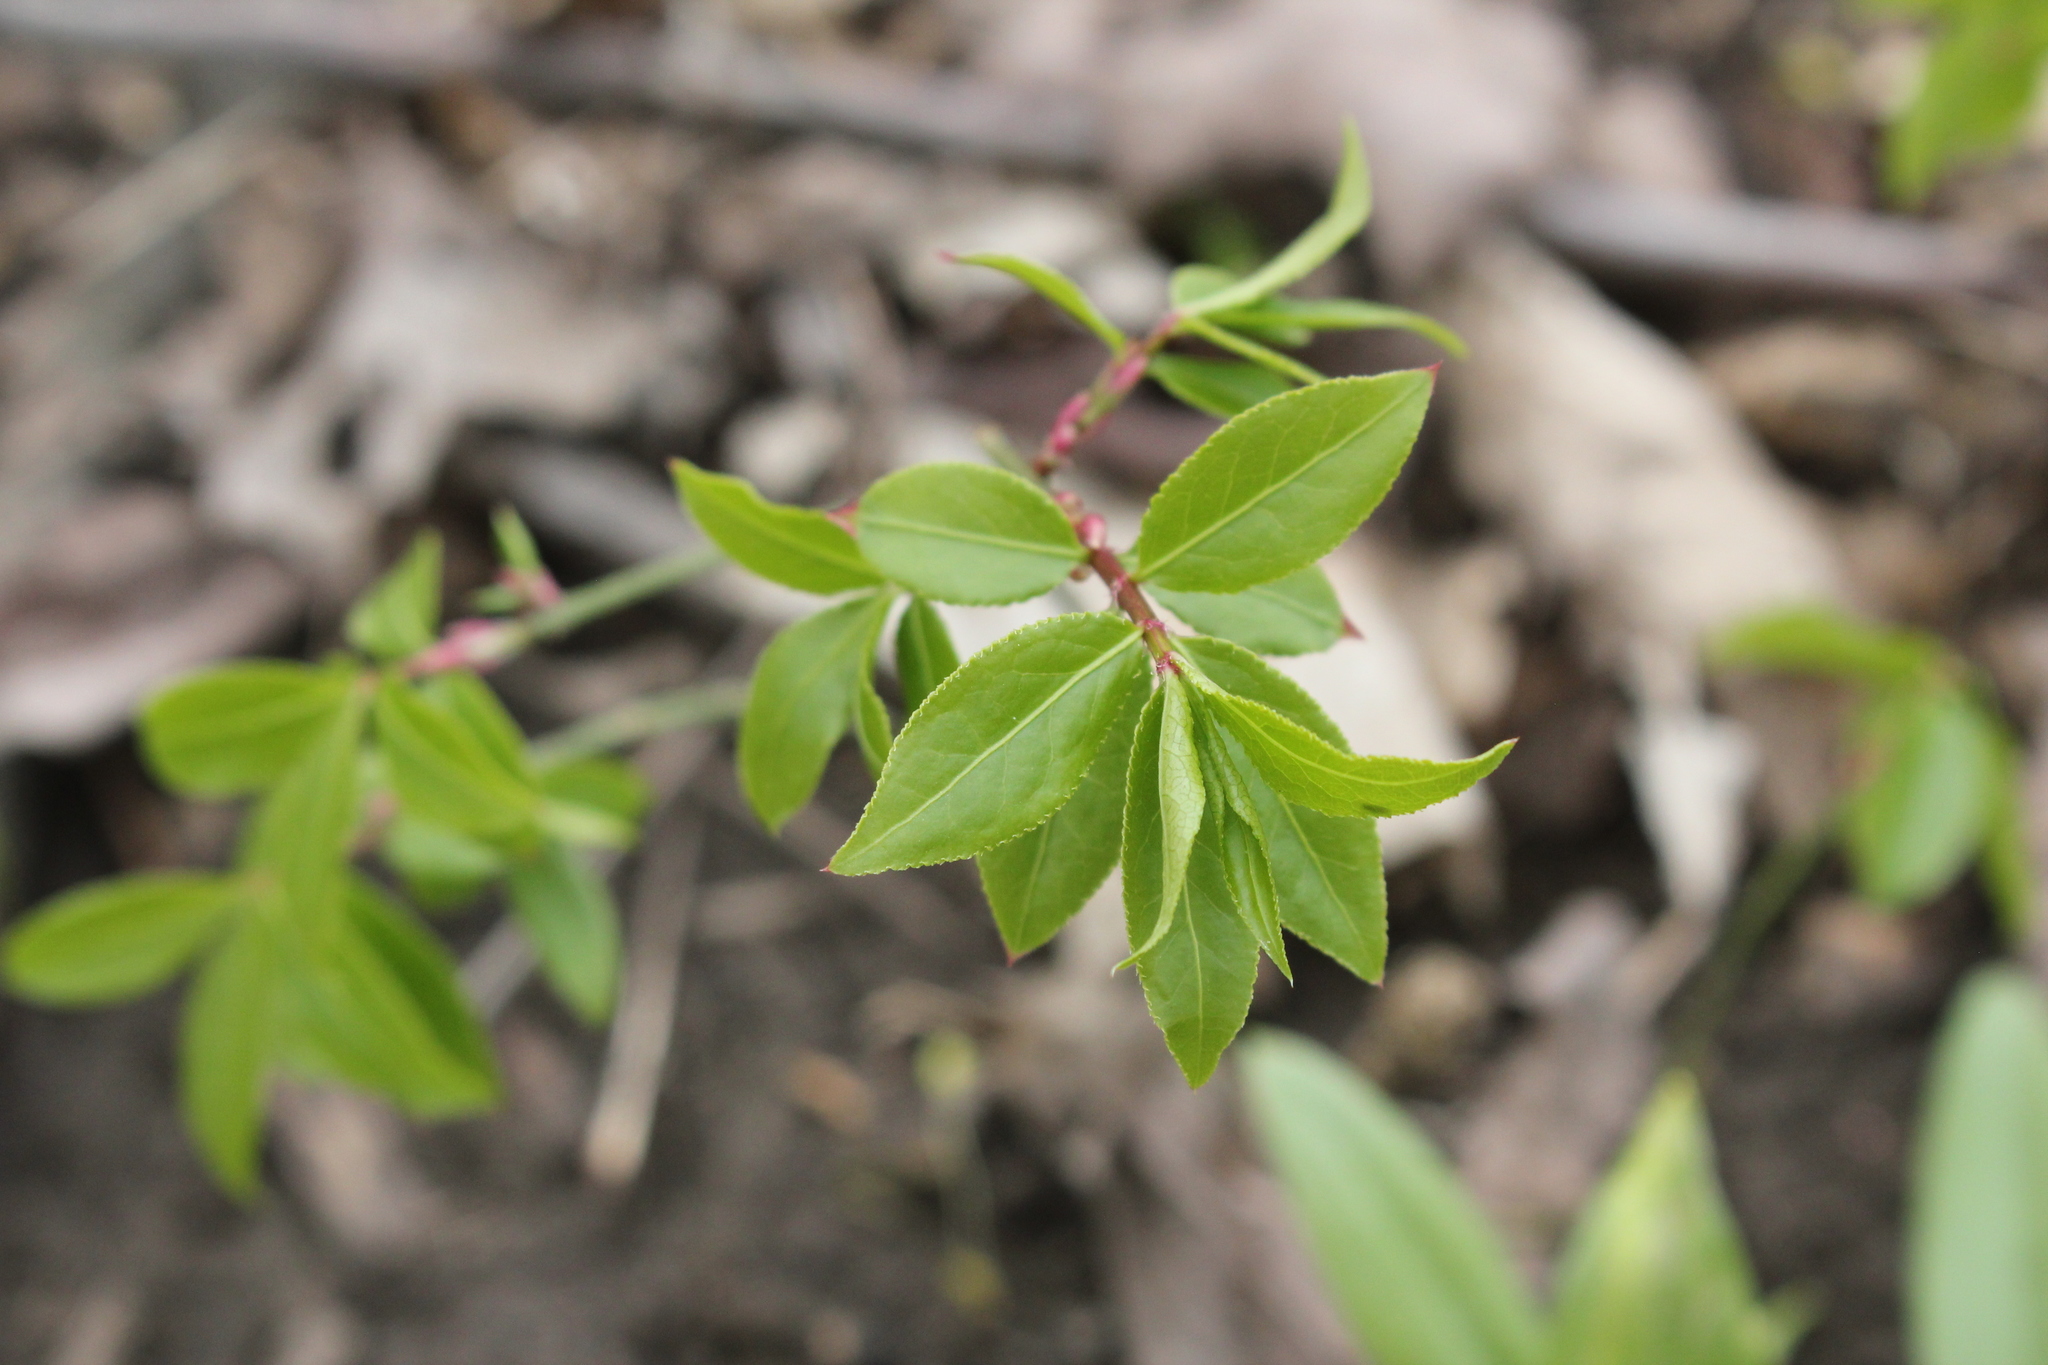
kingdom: Plantae
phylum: Tracheophyta
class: Magnoliopsida
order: Celastrales
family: Celastraceae
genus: Euonymus
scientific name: Euonymus alatus
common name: Winged euonymus
